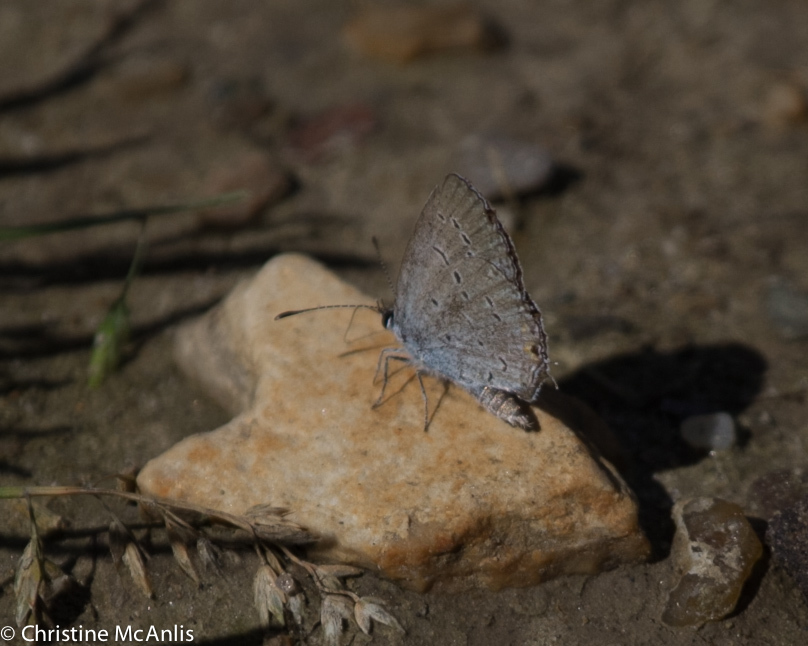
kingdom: Animalia
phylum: Arthropoda
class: Insecta
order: Lepidoptera
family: Lycaenidae
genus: Cyaniris
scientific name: Cyaniris neglecta
